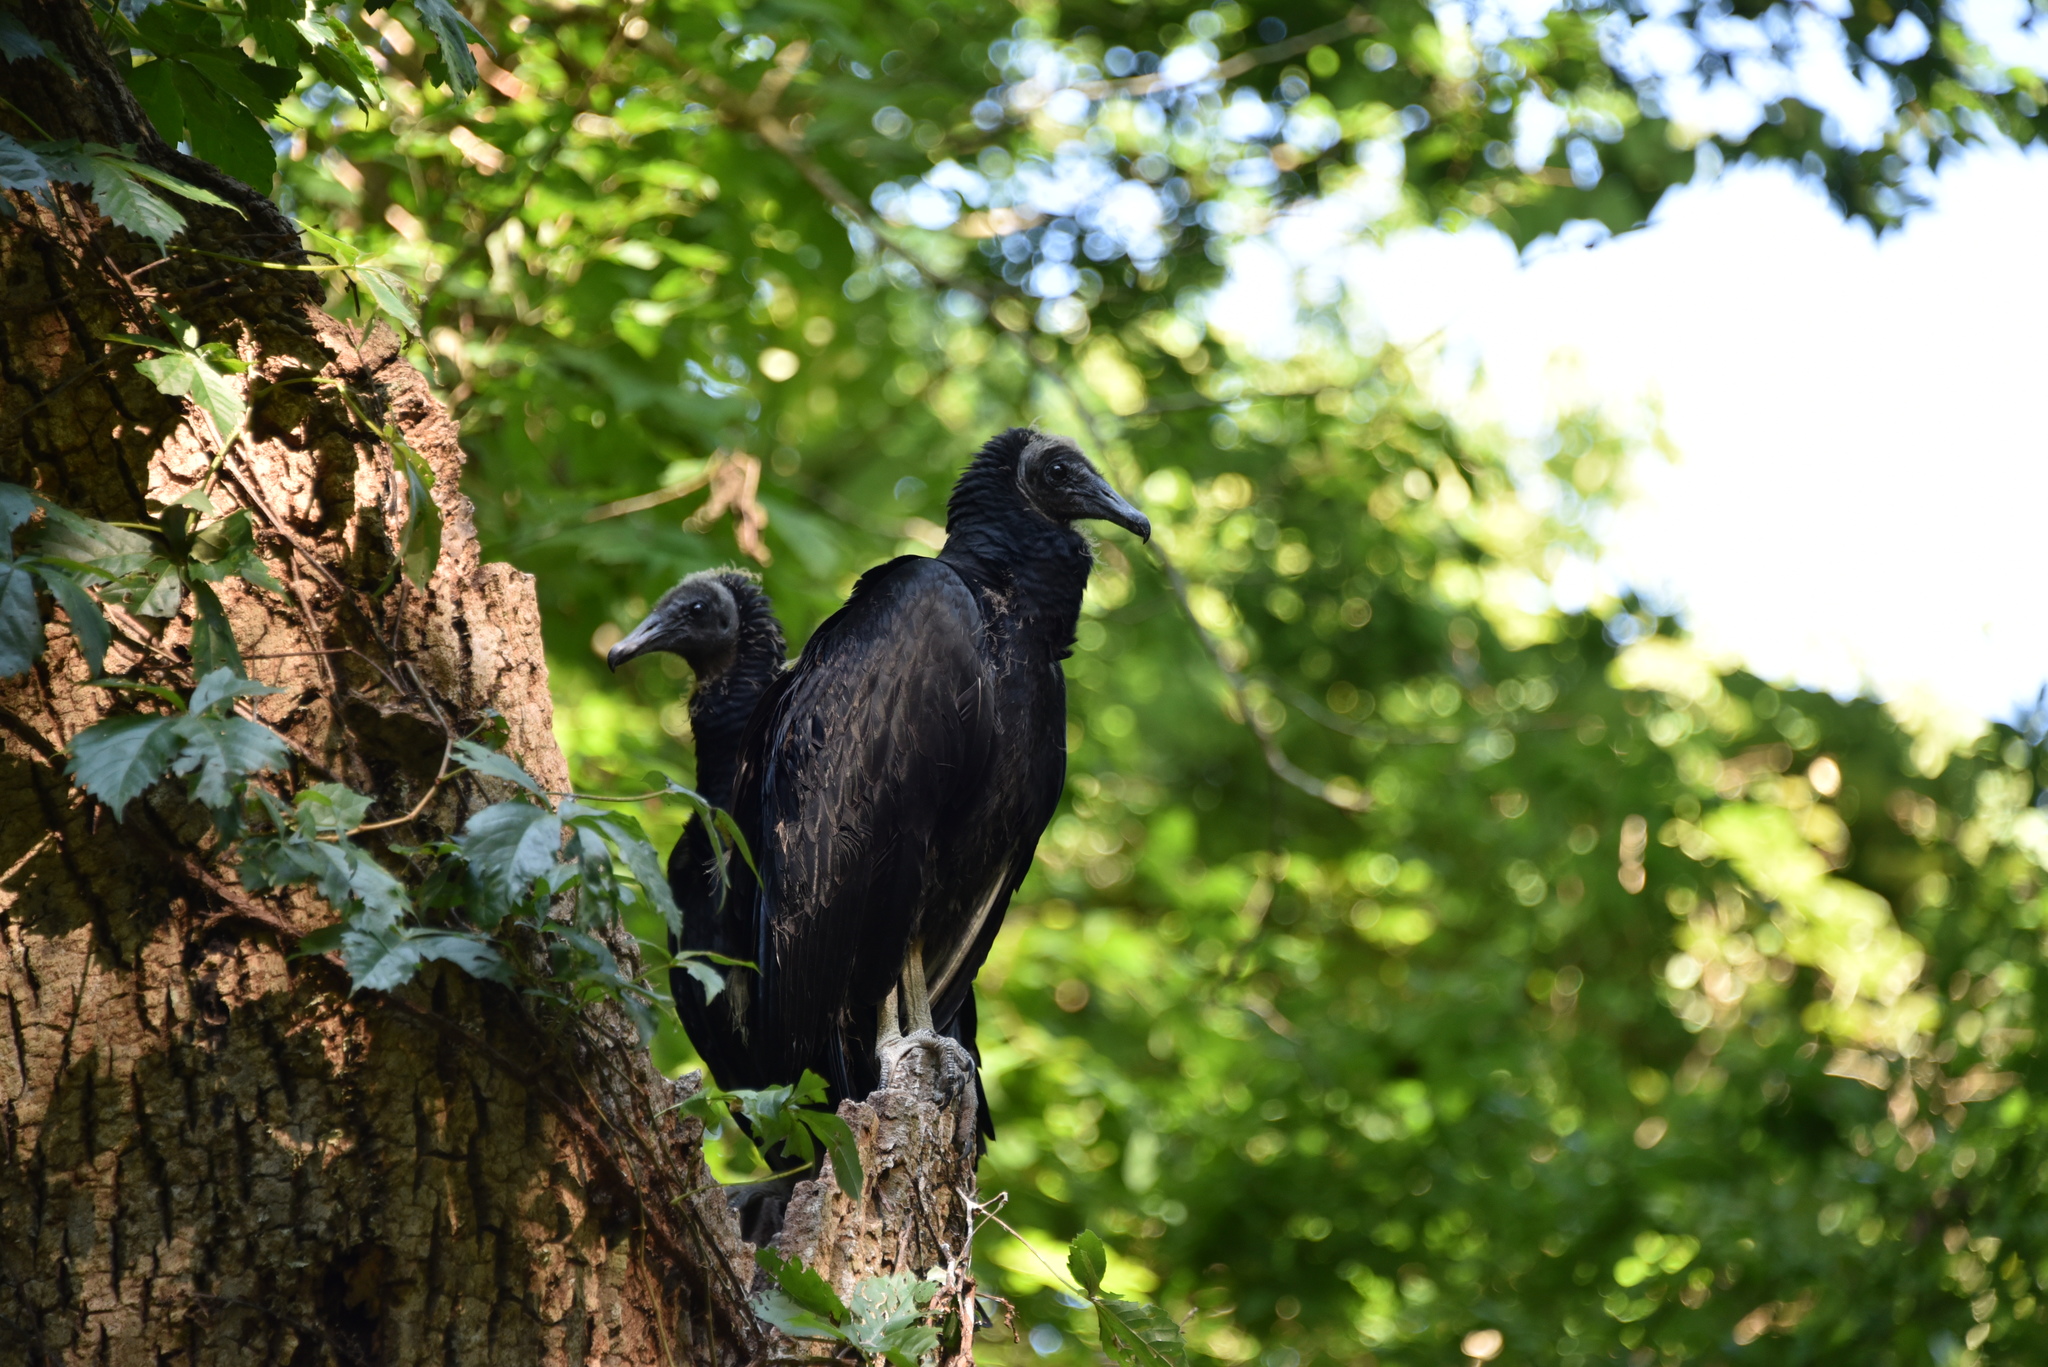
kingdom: Animalia
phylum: Chordata
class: Aves
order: Accipitriformes
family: Cathartidae
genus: Coragyps
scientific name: Coragyps atratus
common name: Black vulture
